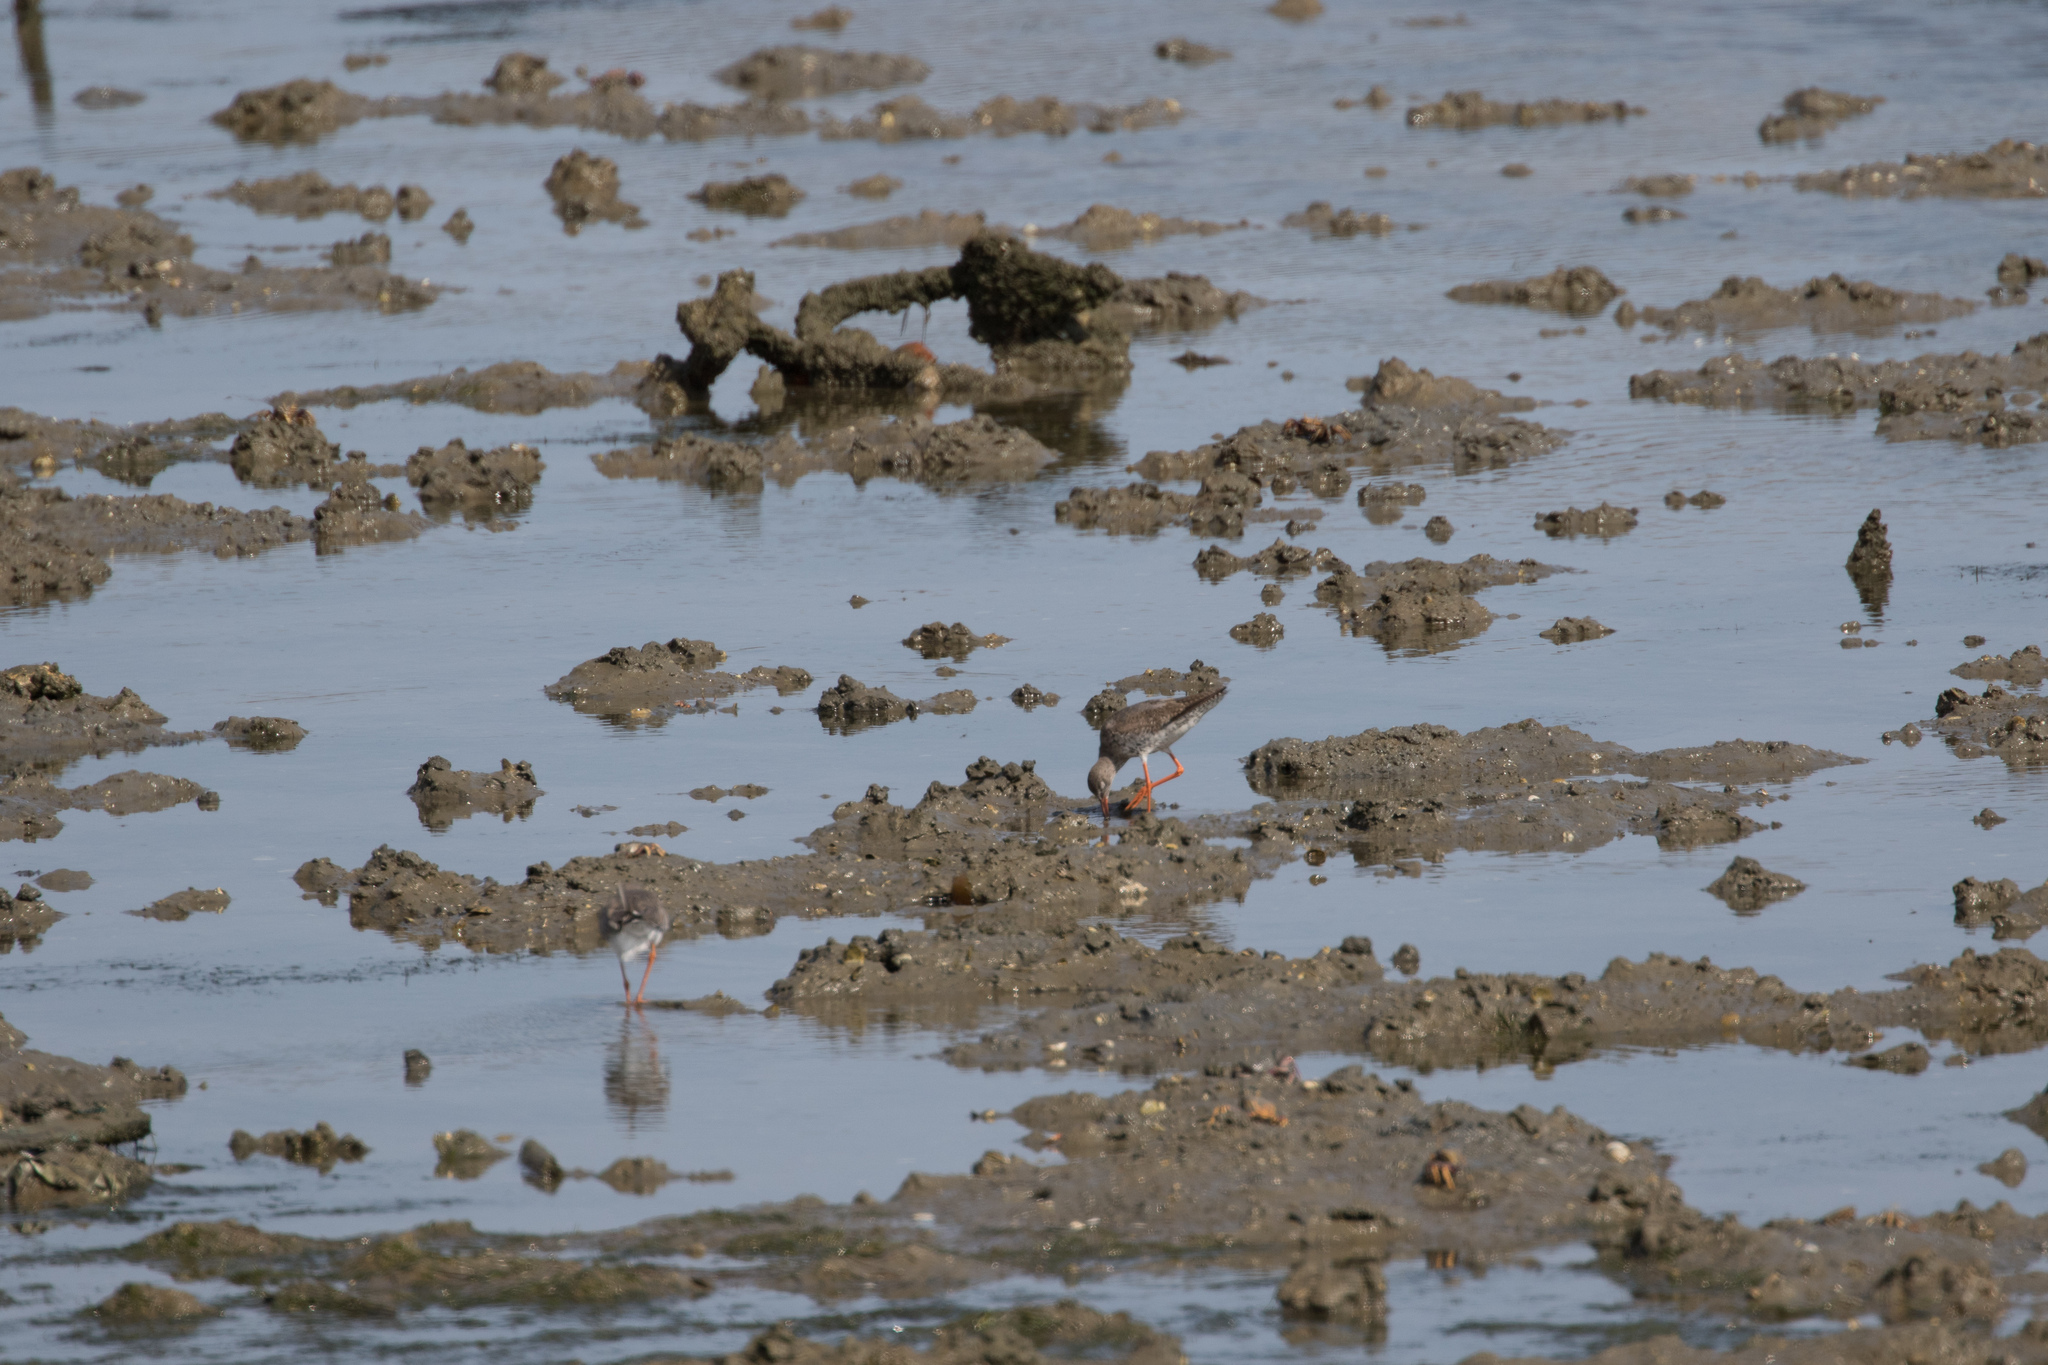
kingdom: Animalia
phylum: Chordata
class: Aves
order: Charadriiformes
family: Scolopacidae
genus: Tringa
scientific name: Tringa totanus
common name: Common redshank
